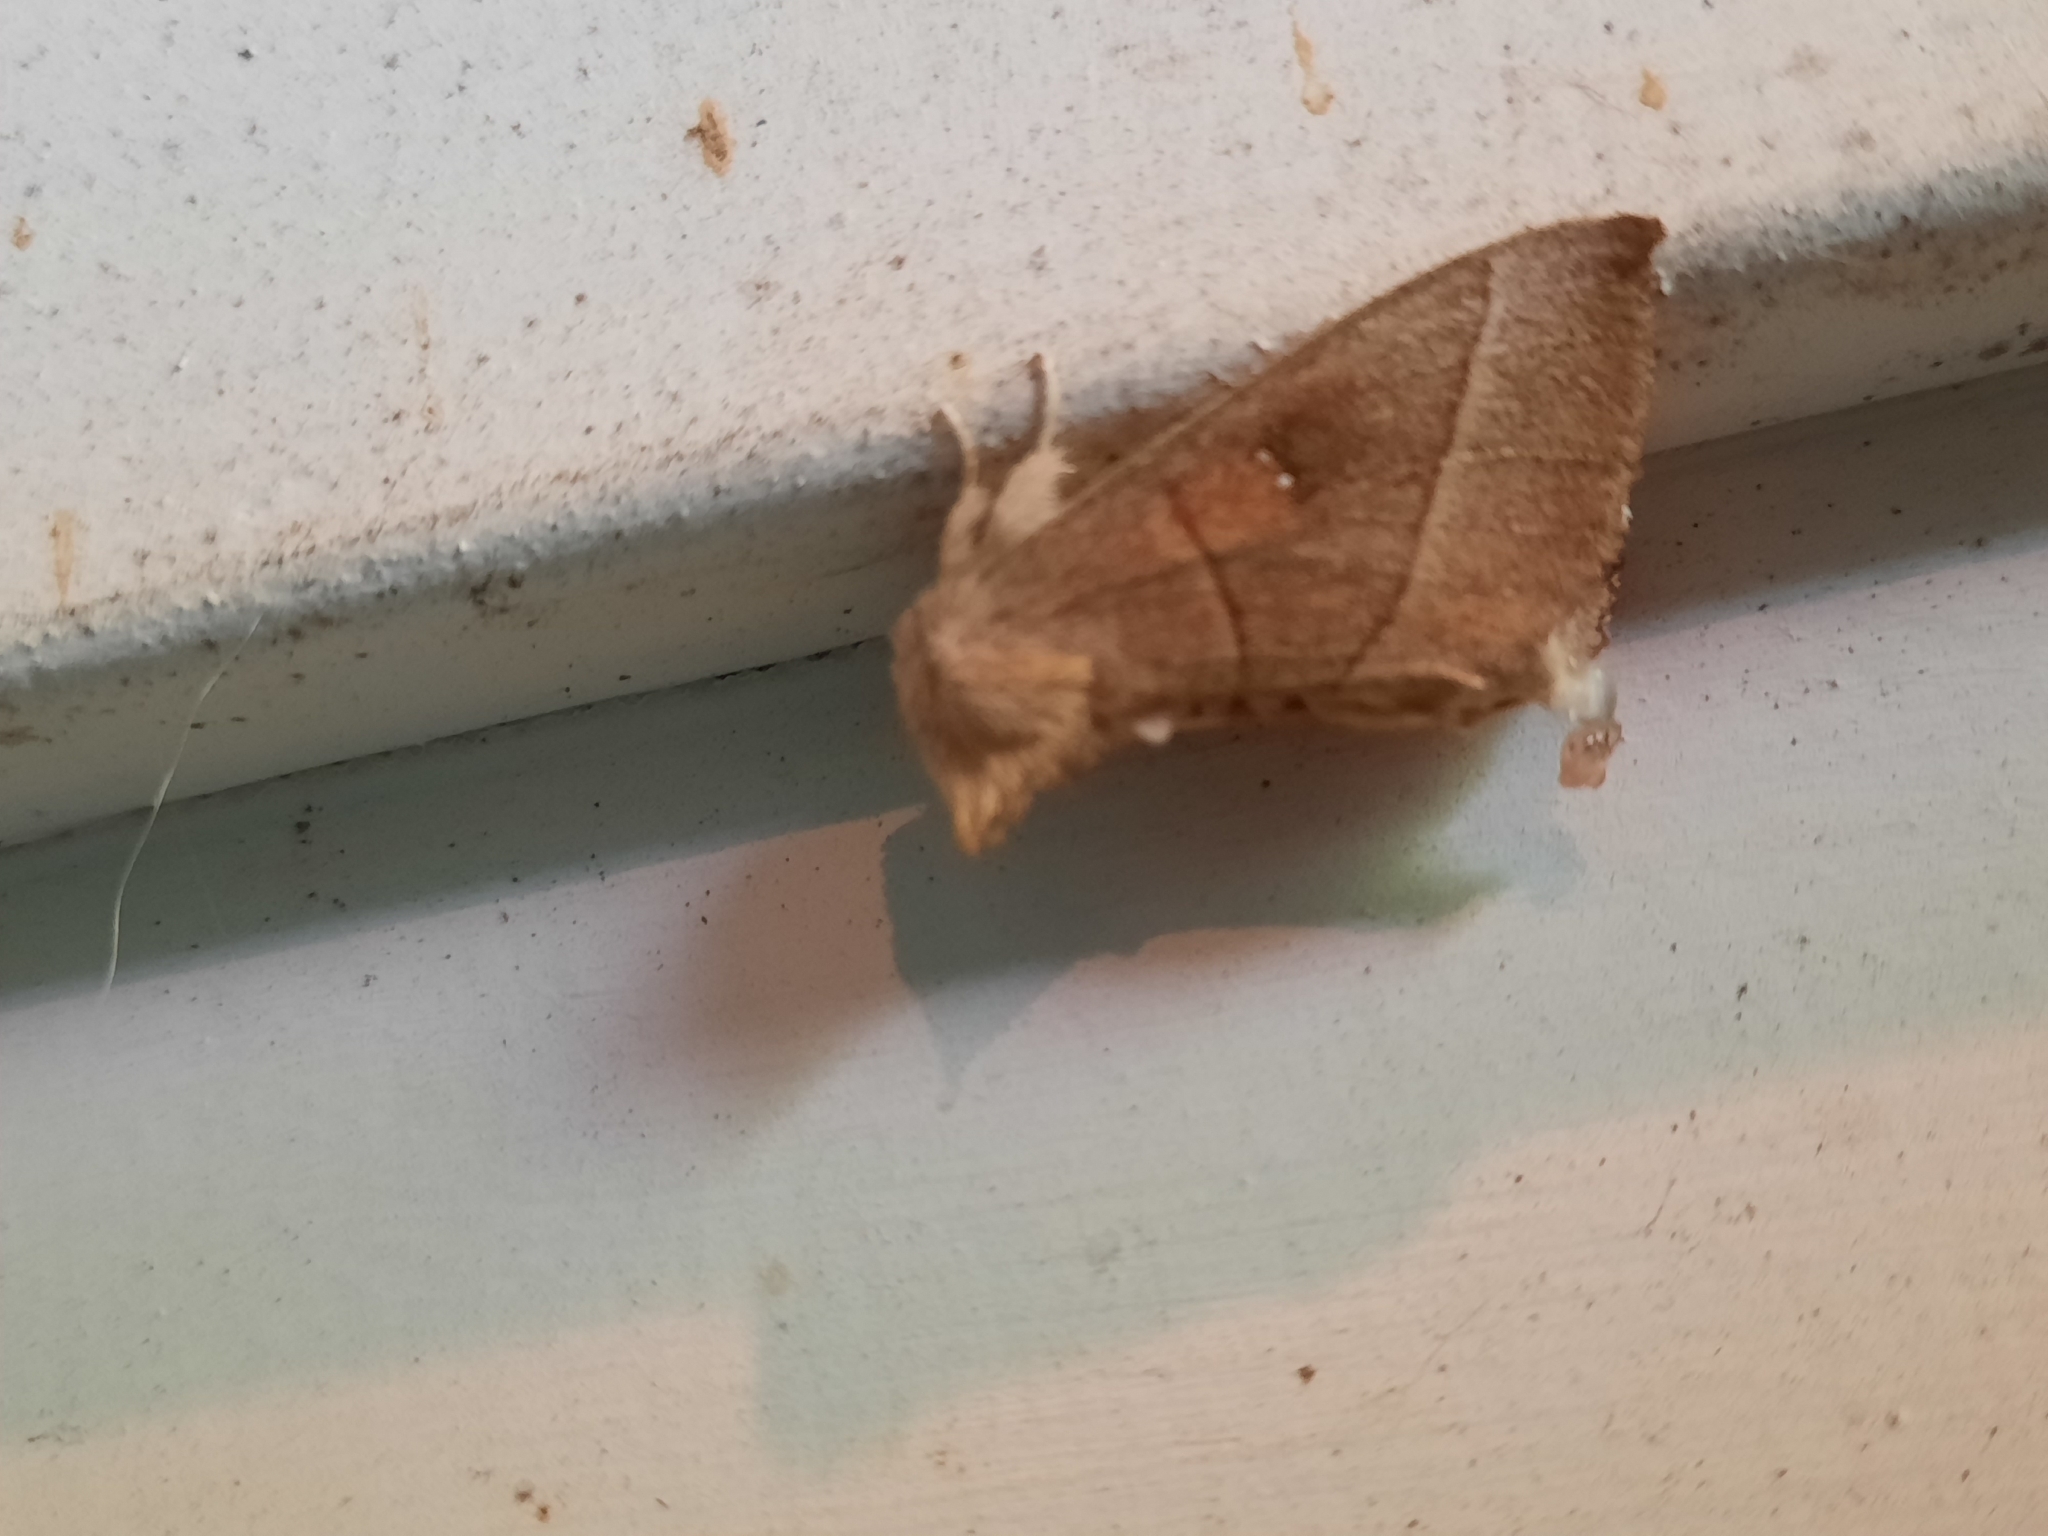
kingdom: Animalia
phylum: Arthropoda
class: Insecta
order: Lepidoptera
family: Notodontidae
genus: Nadata
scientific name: Nadata gibbosa
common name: White-dotted prominent
